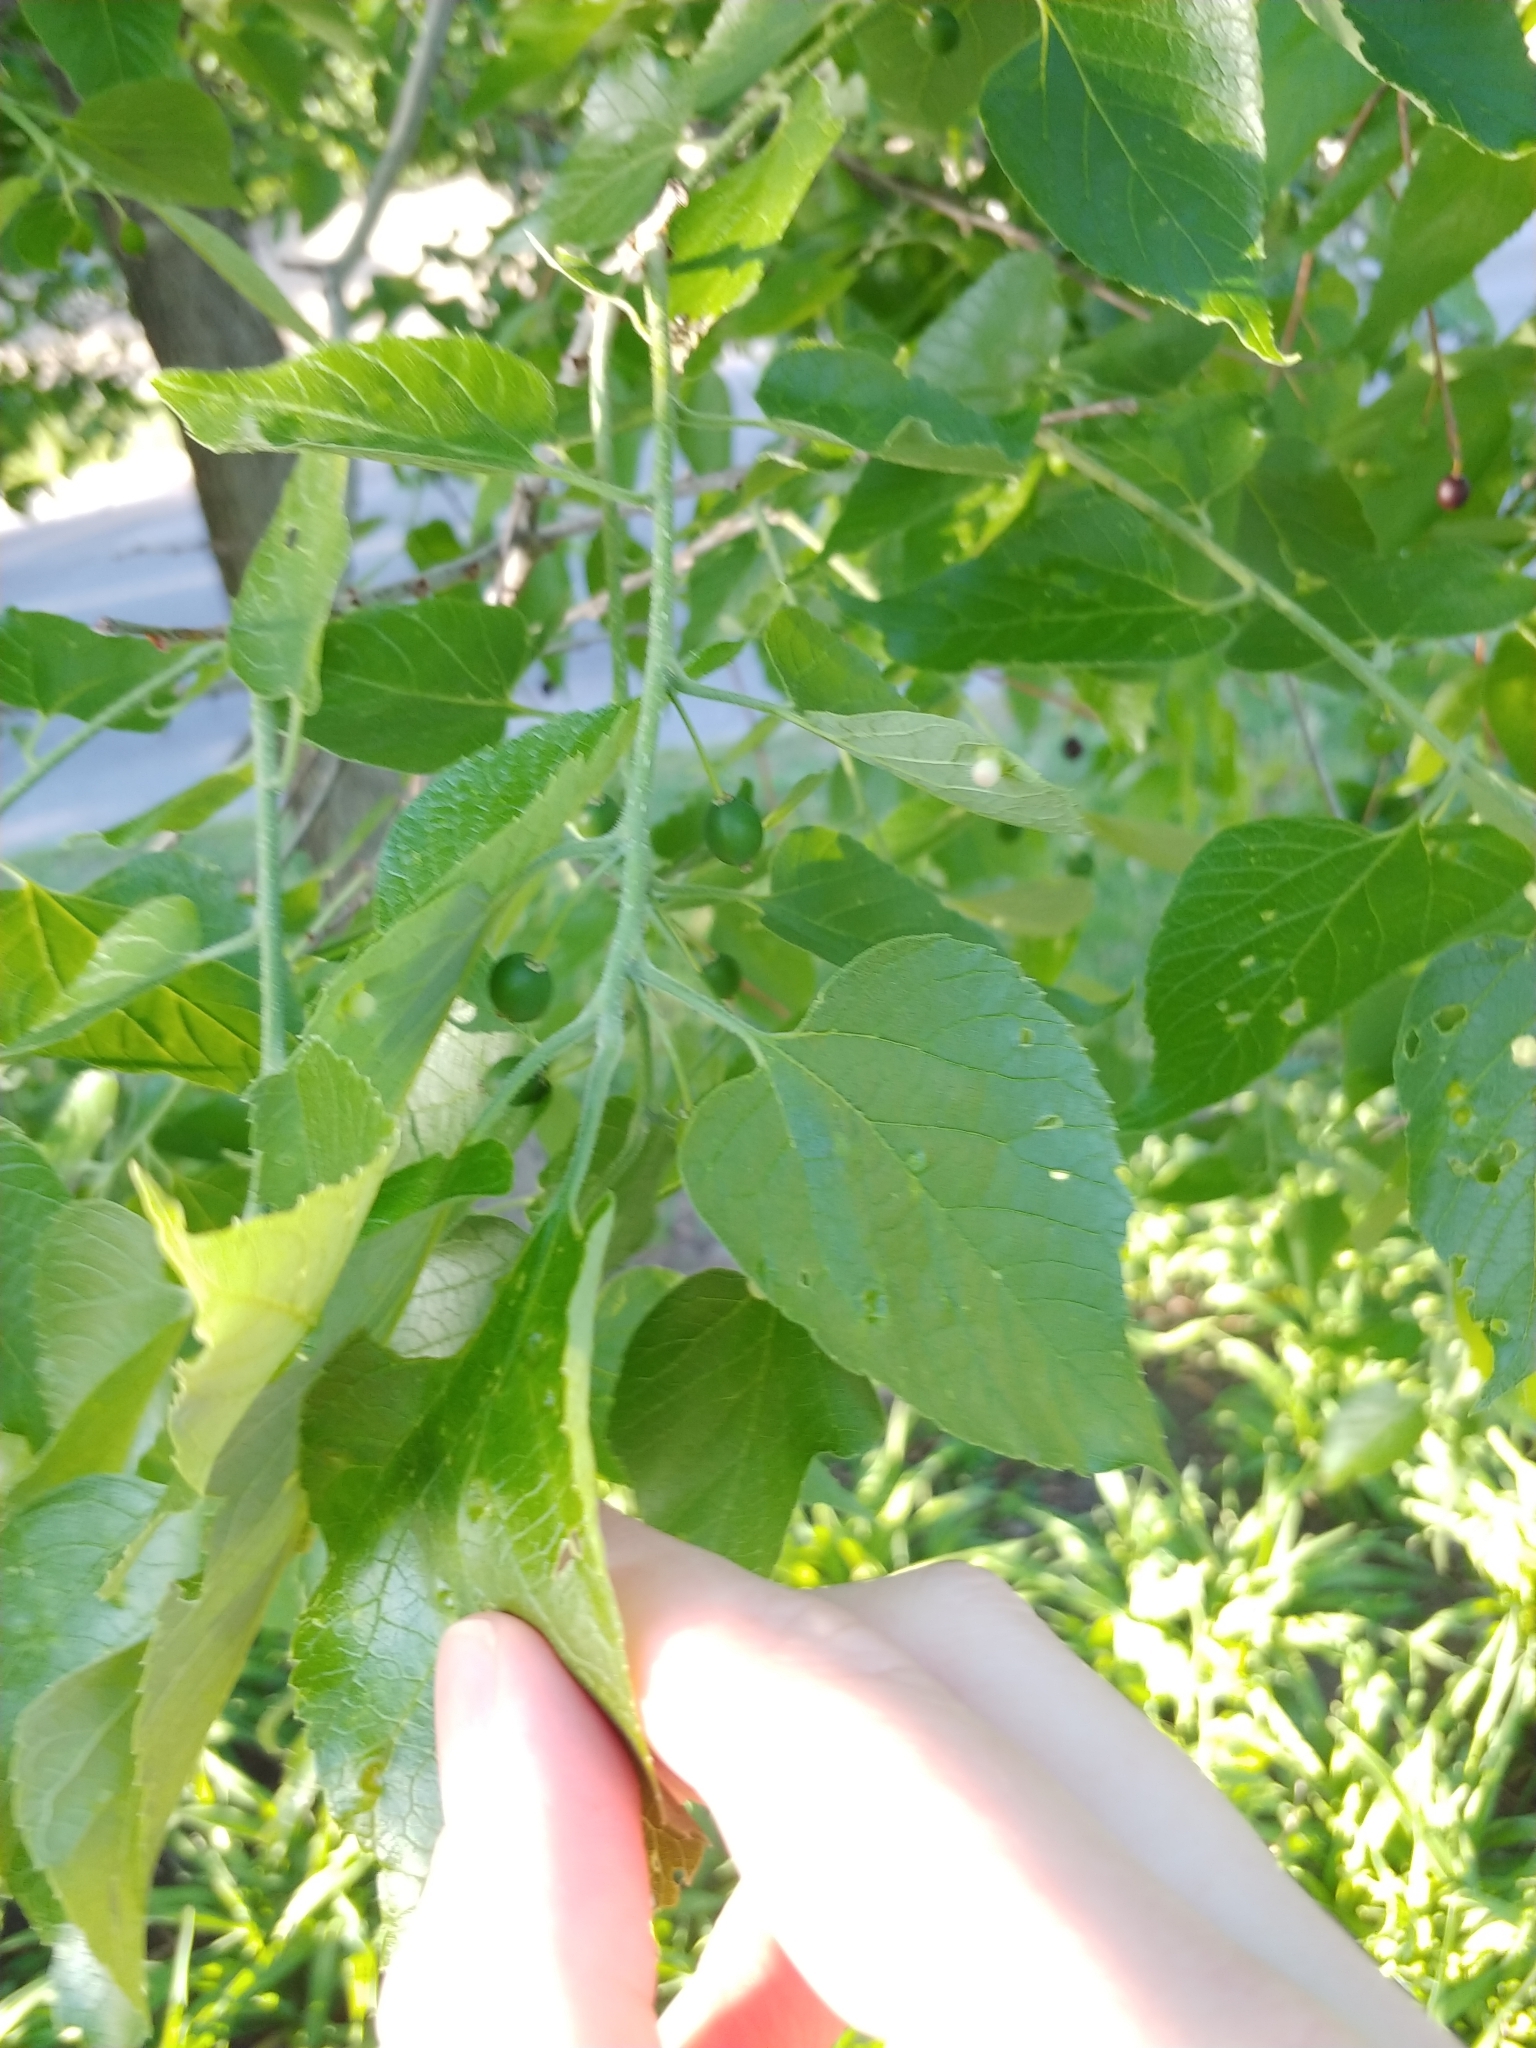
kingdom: Animalia
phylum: Arthropoda
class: Insecta
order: Hemiptera
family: Aphalaridae
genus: Pachypsylla
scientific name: Pachypsylla celtidismamma
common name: Hackberry nipplegall psyllid
